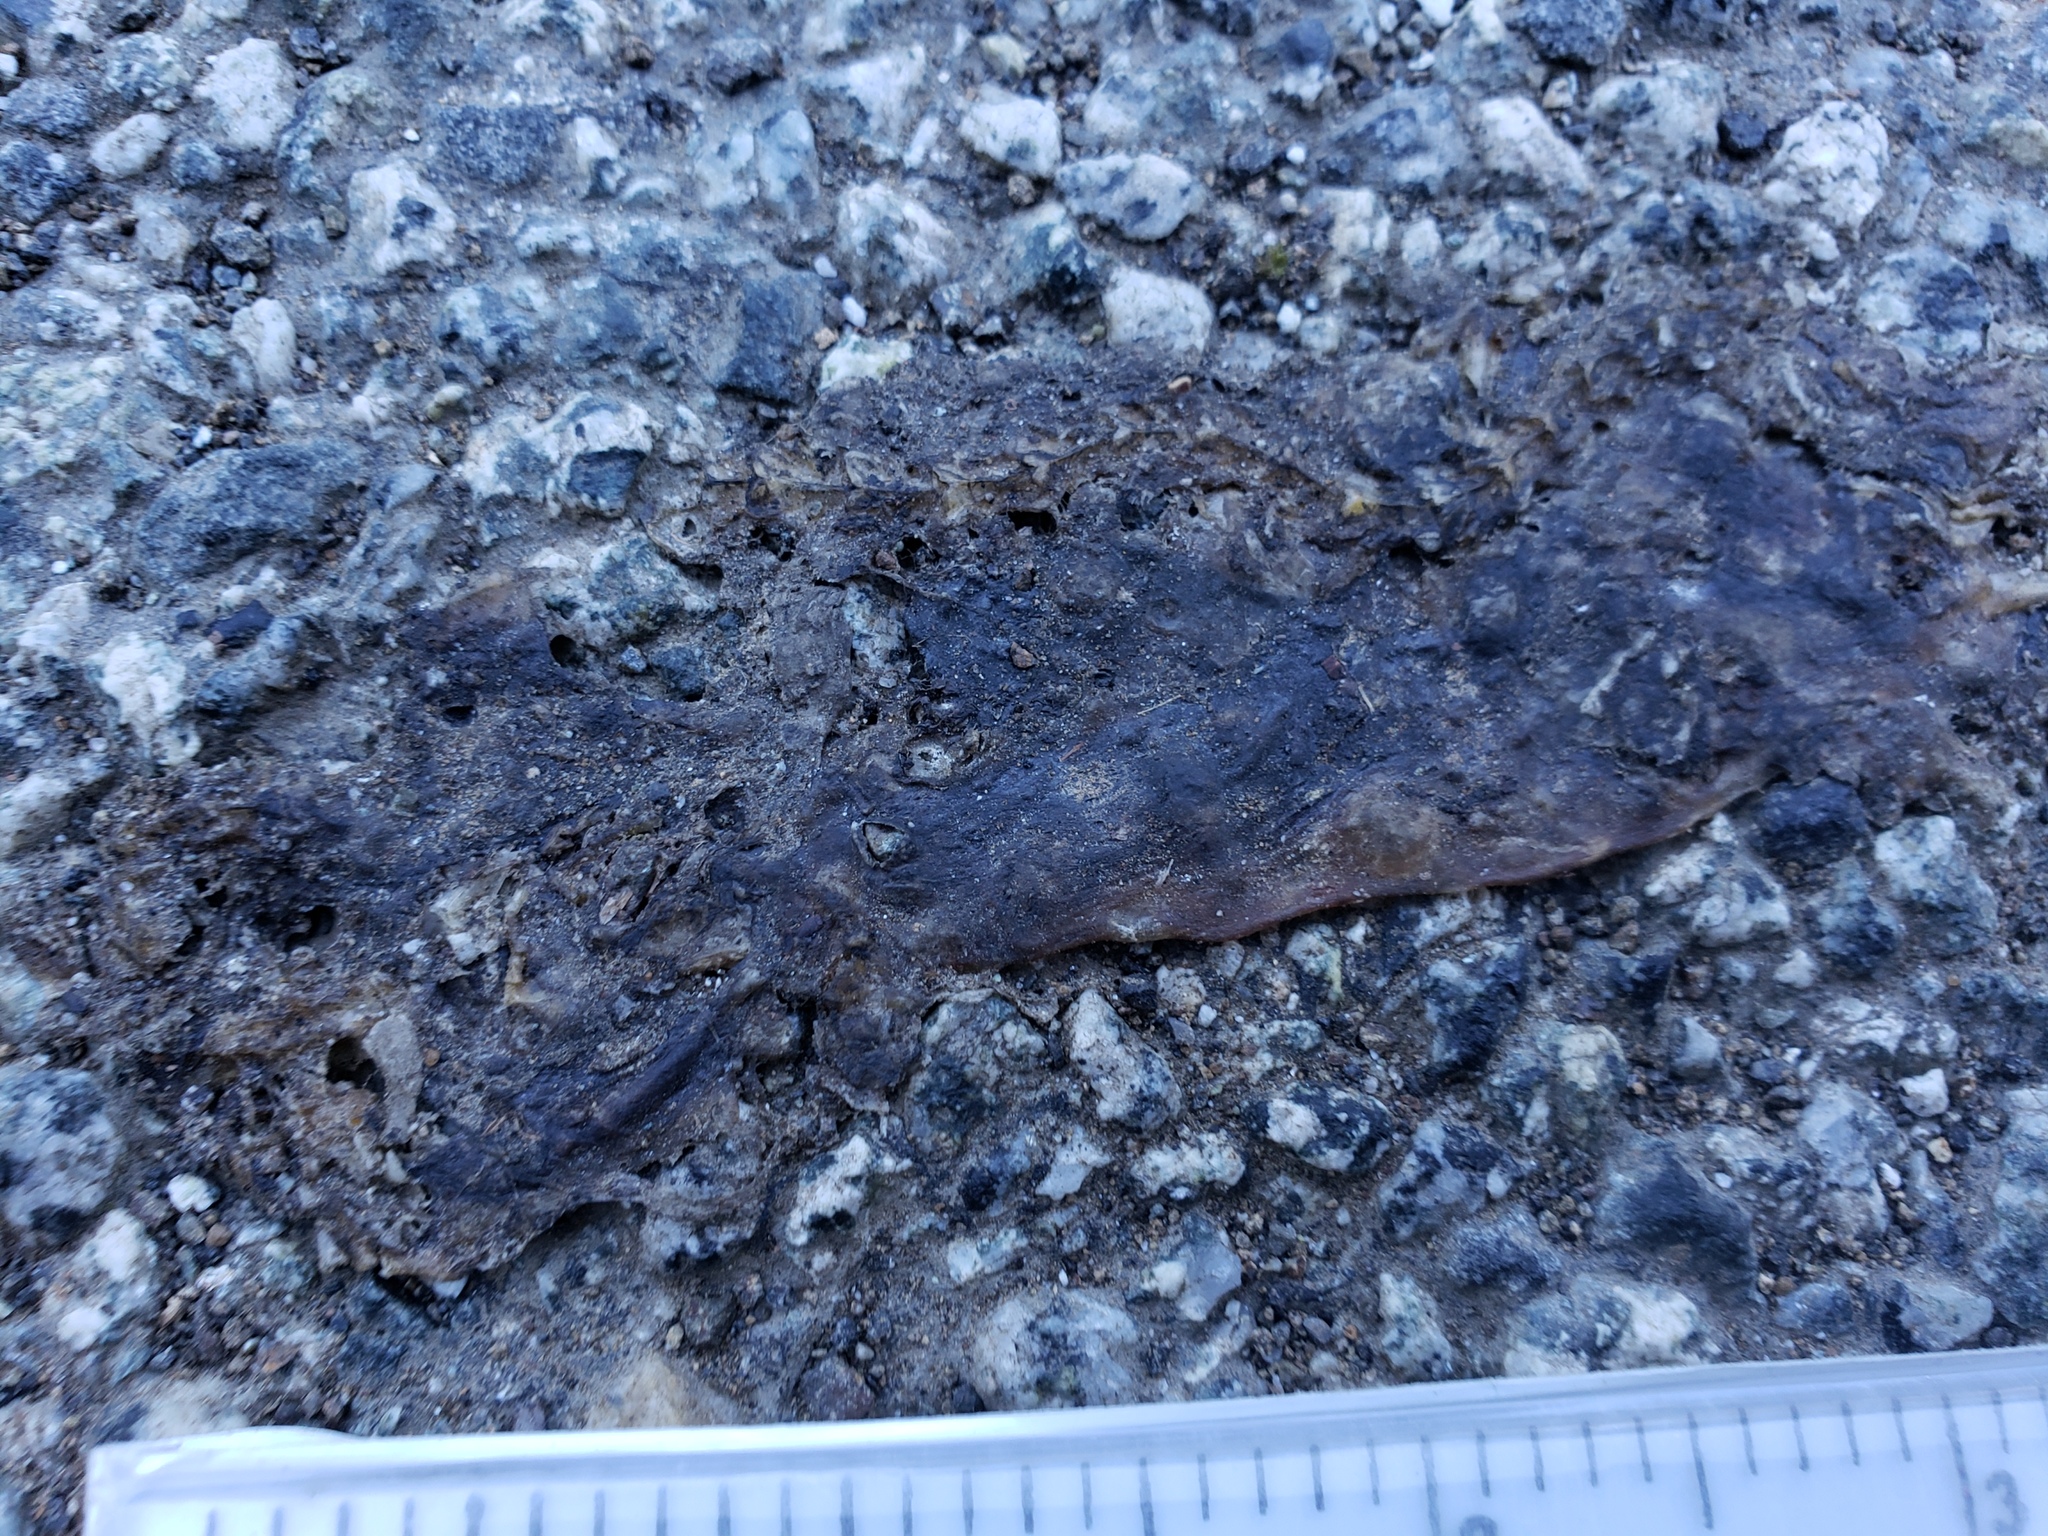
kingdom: Animalia
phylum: Chordata
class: Amphibia
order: Caudata
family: Salamandridae
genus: Taricha
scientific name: Taricha
